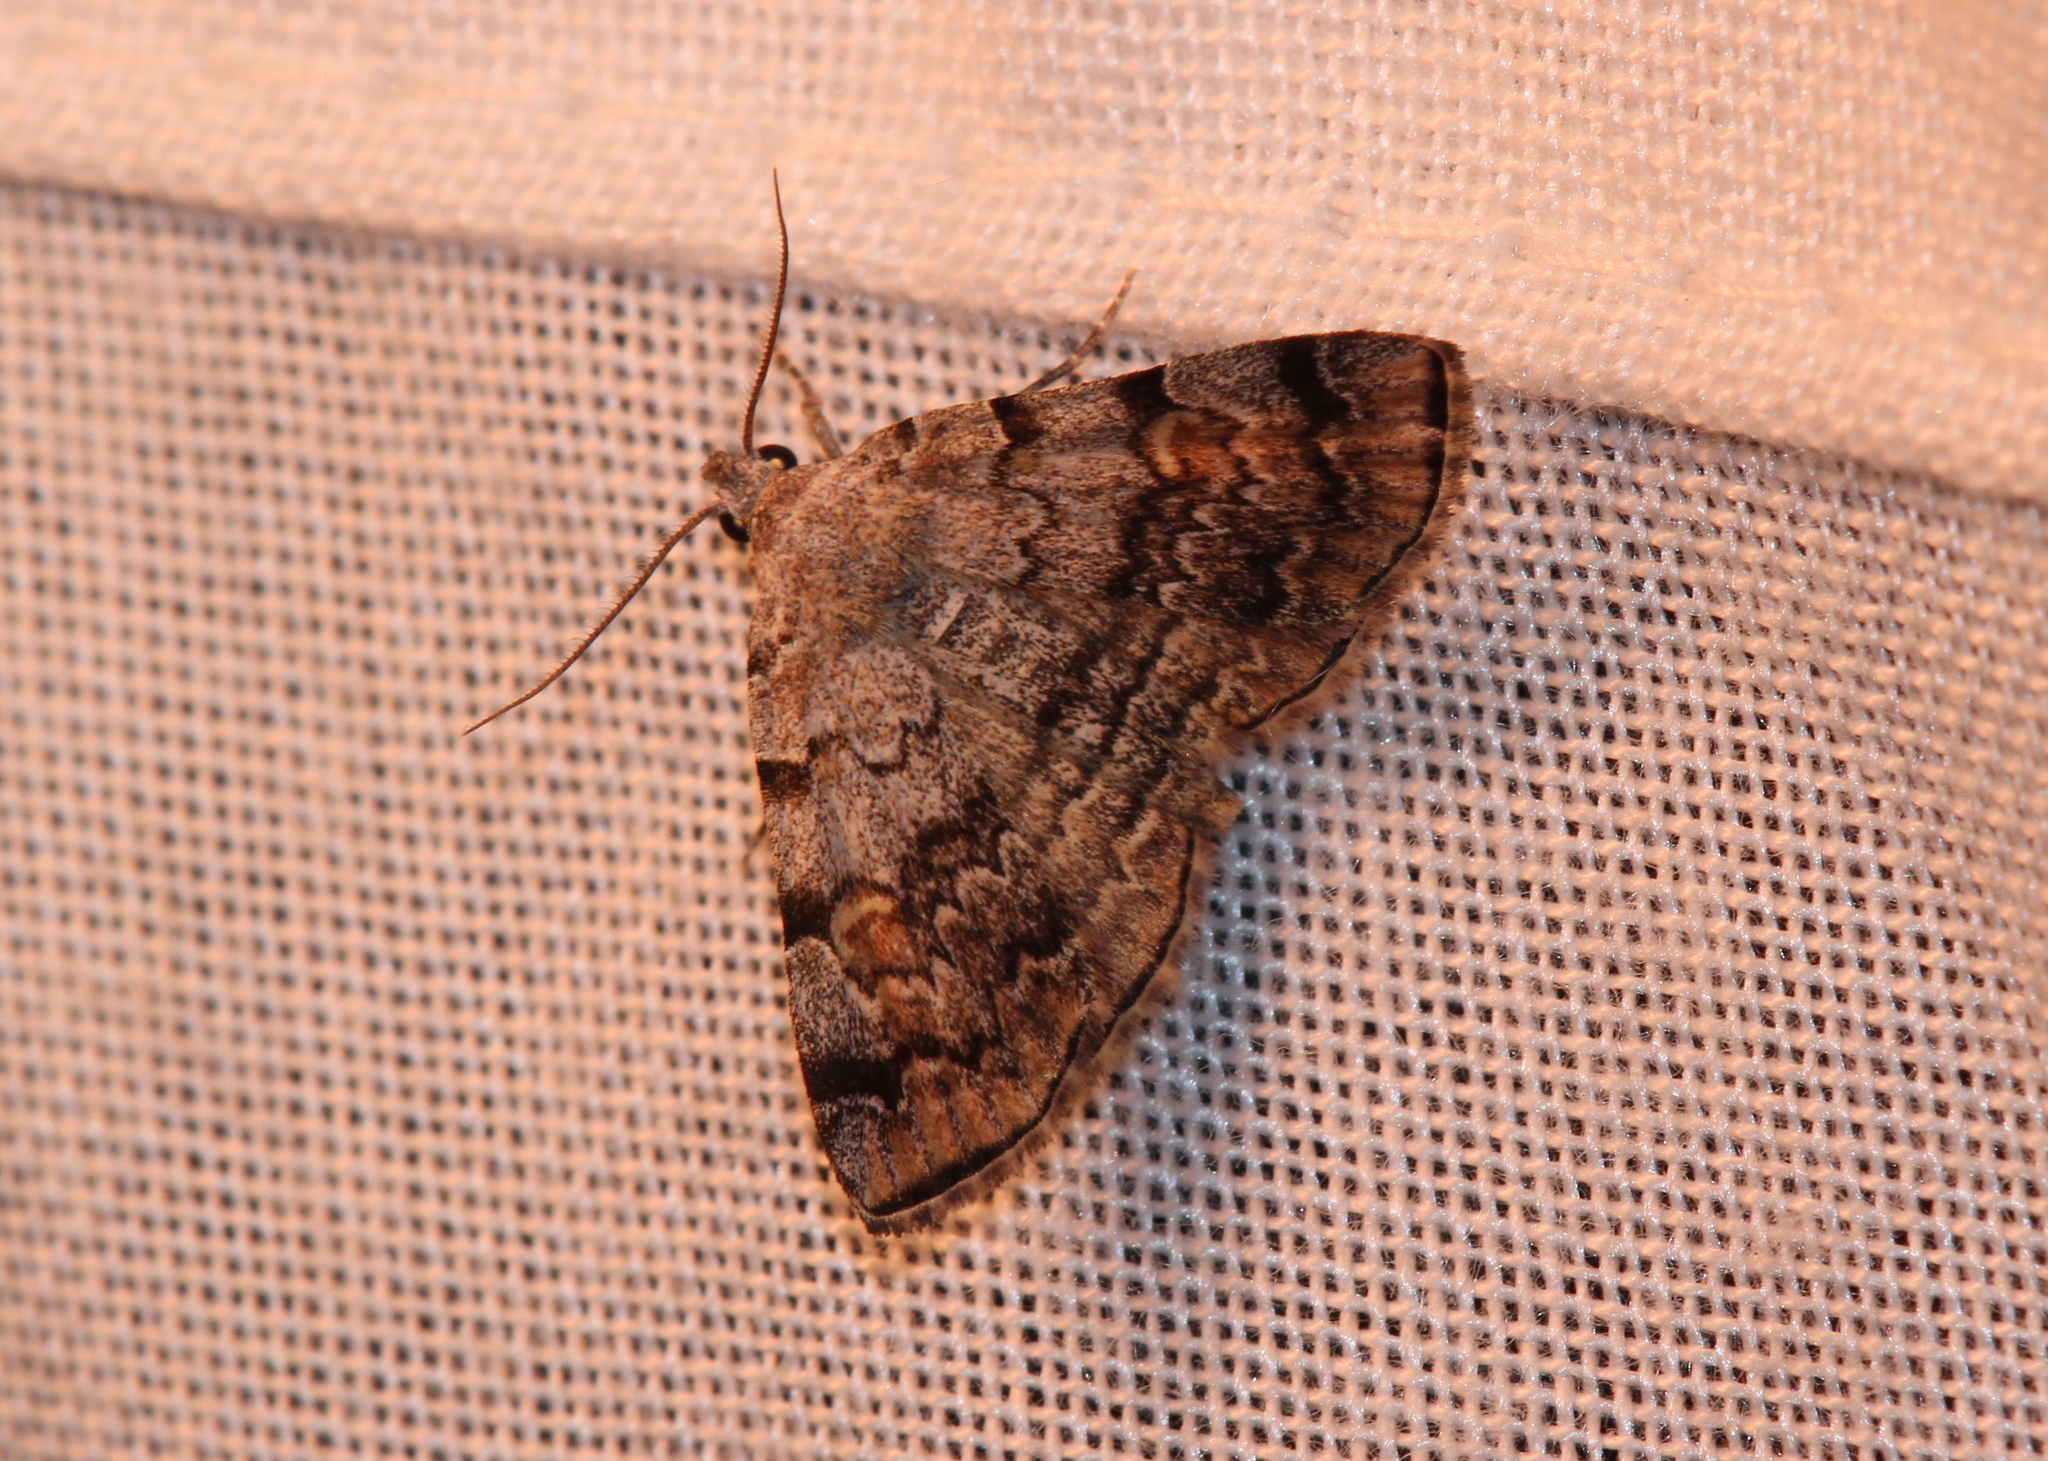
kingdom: Animalia
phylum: Arthropoda
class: Insecta
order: Lepidoptera
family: Erebidae
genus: Idia
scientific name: Idia americalis
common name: American idia moth
